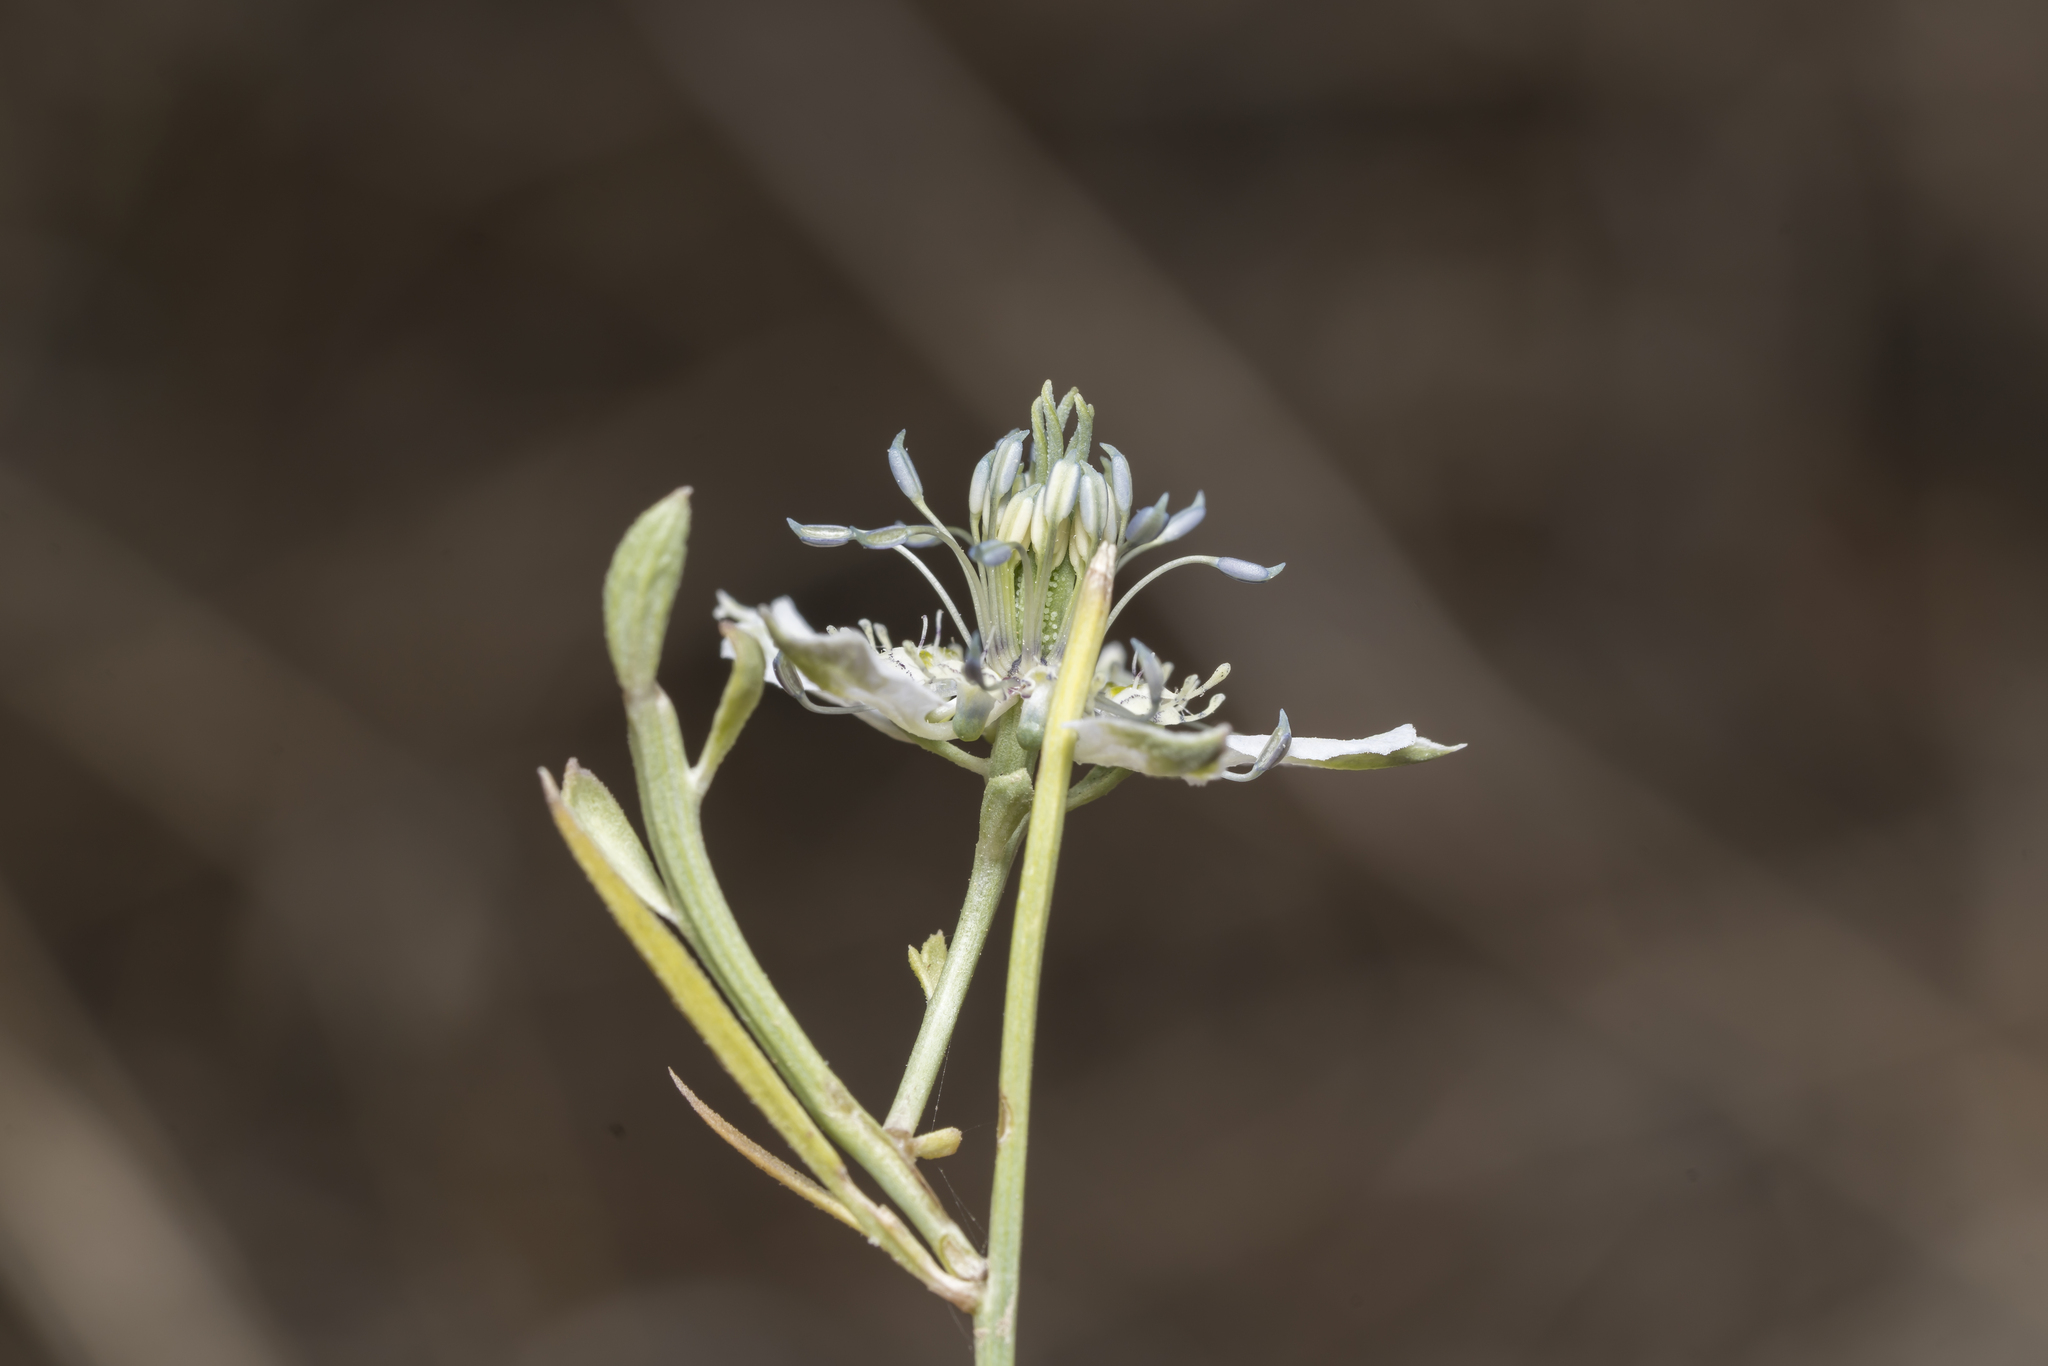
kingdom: Plantae
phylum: Tracheophyta
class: Magnoliopsida
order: Ranunculales
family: Ranunculaceae
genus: Nigella
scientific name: Nigella arvensis
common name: Wild fennel-flower
